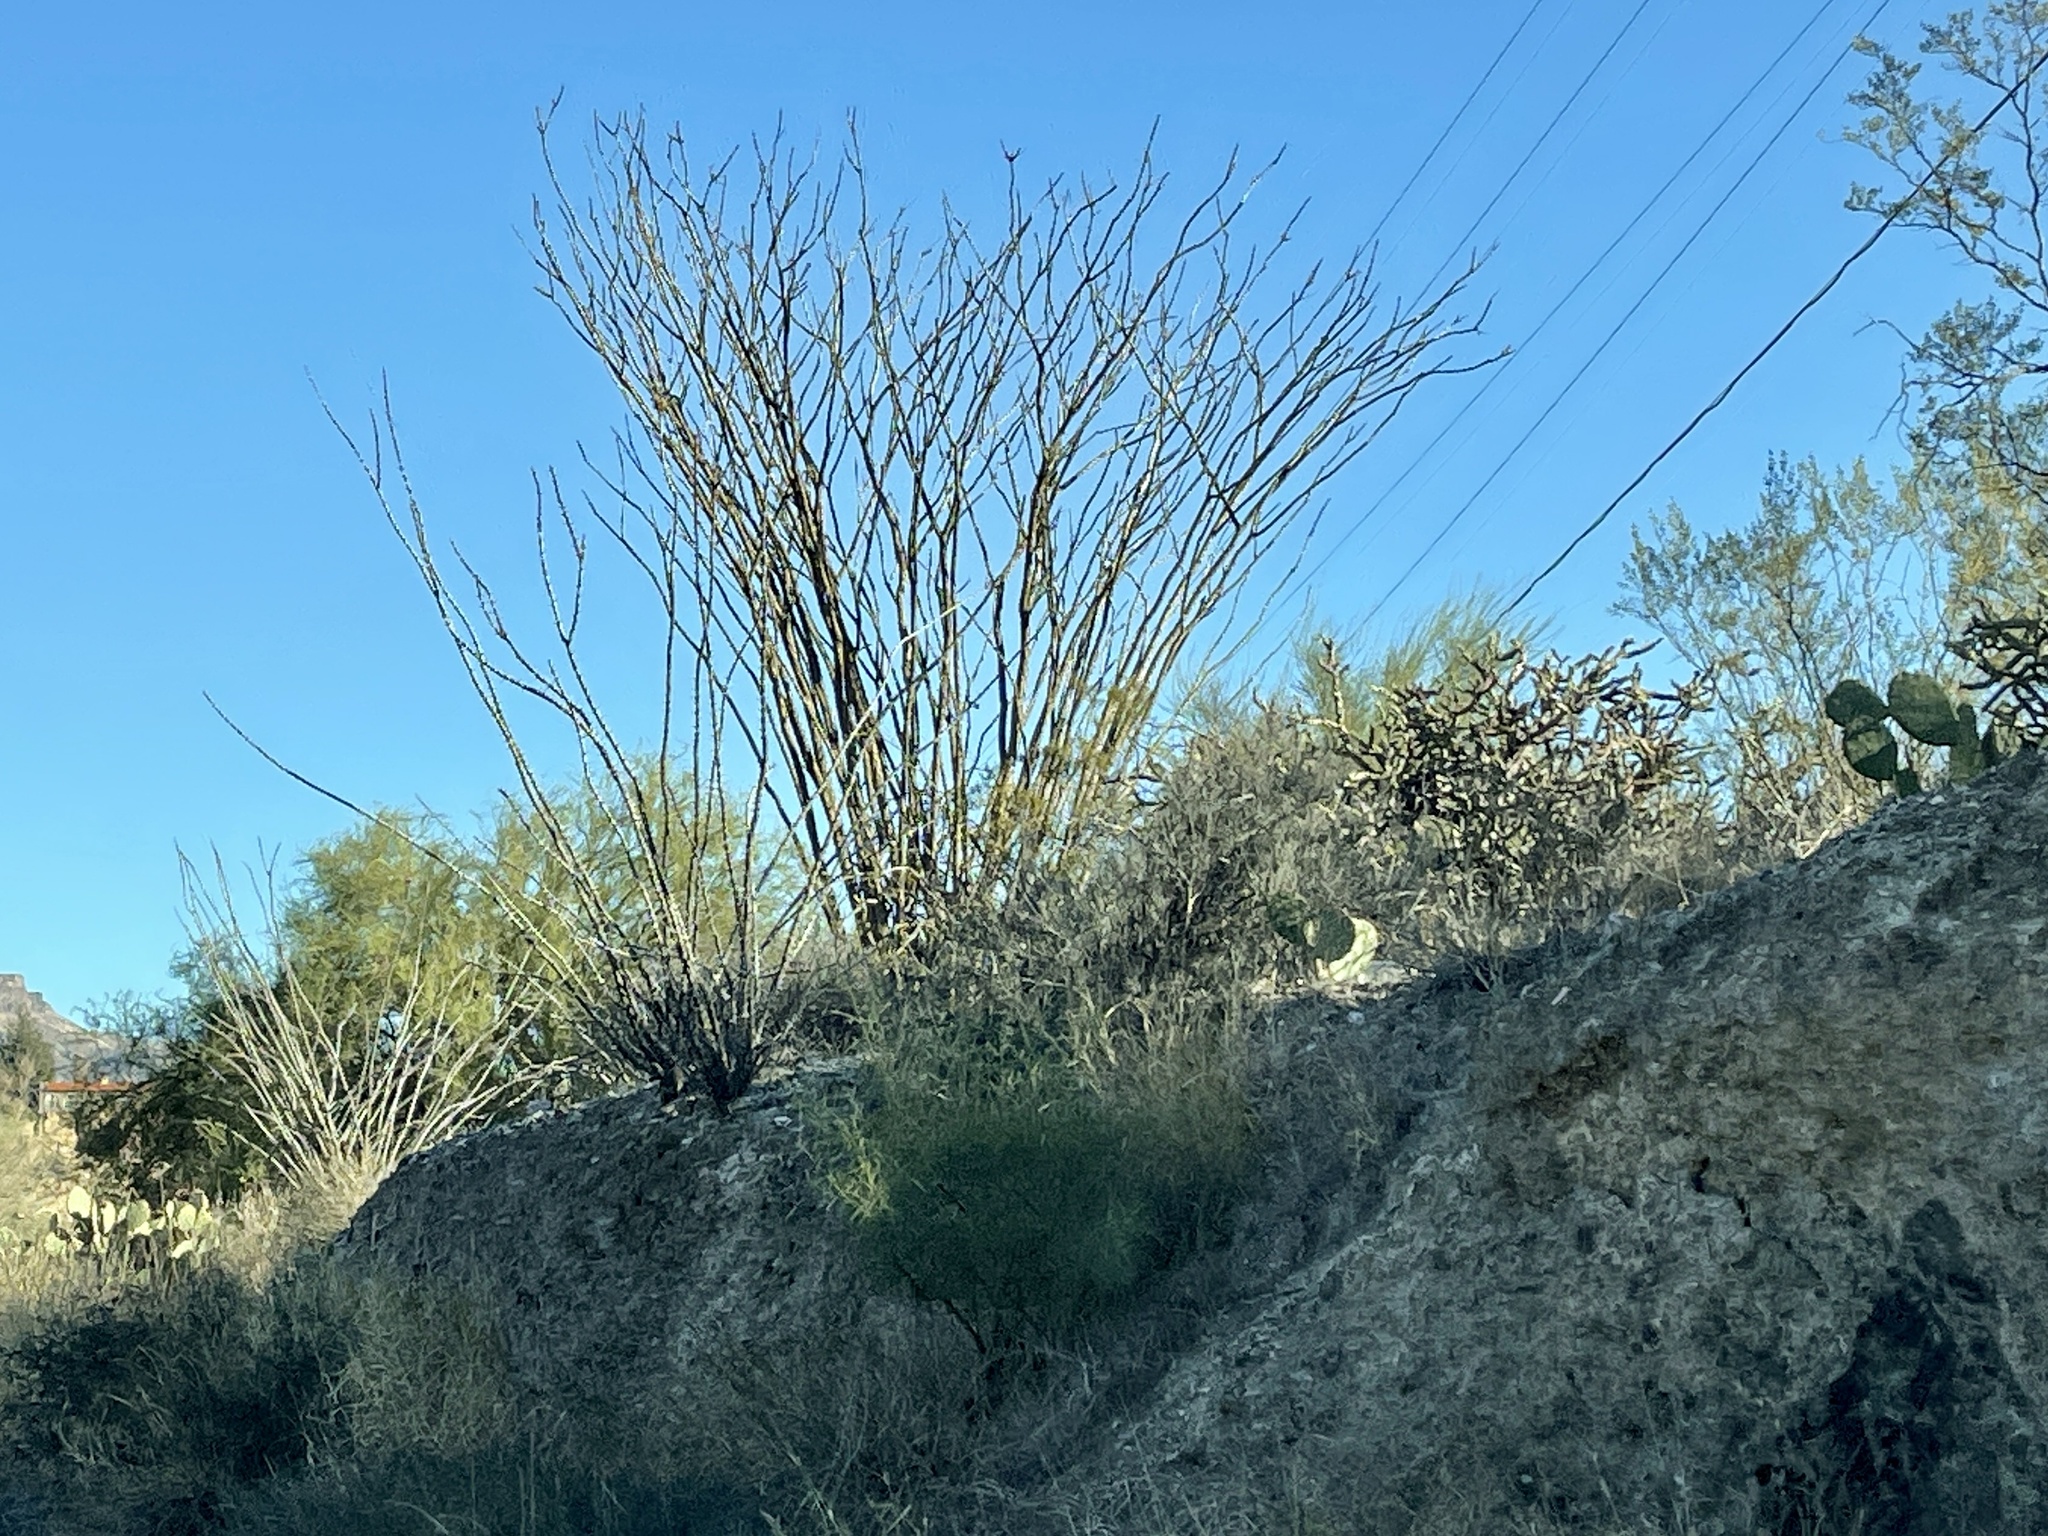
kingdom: Plantae
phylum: Tracheophyta
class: Magnoliopsida
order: Ericales
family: Fouquieriaceae
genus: Fouquieria
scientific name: Fouquieria splendens
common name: Vine-cactus
